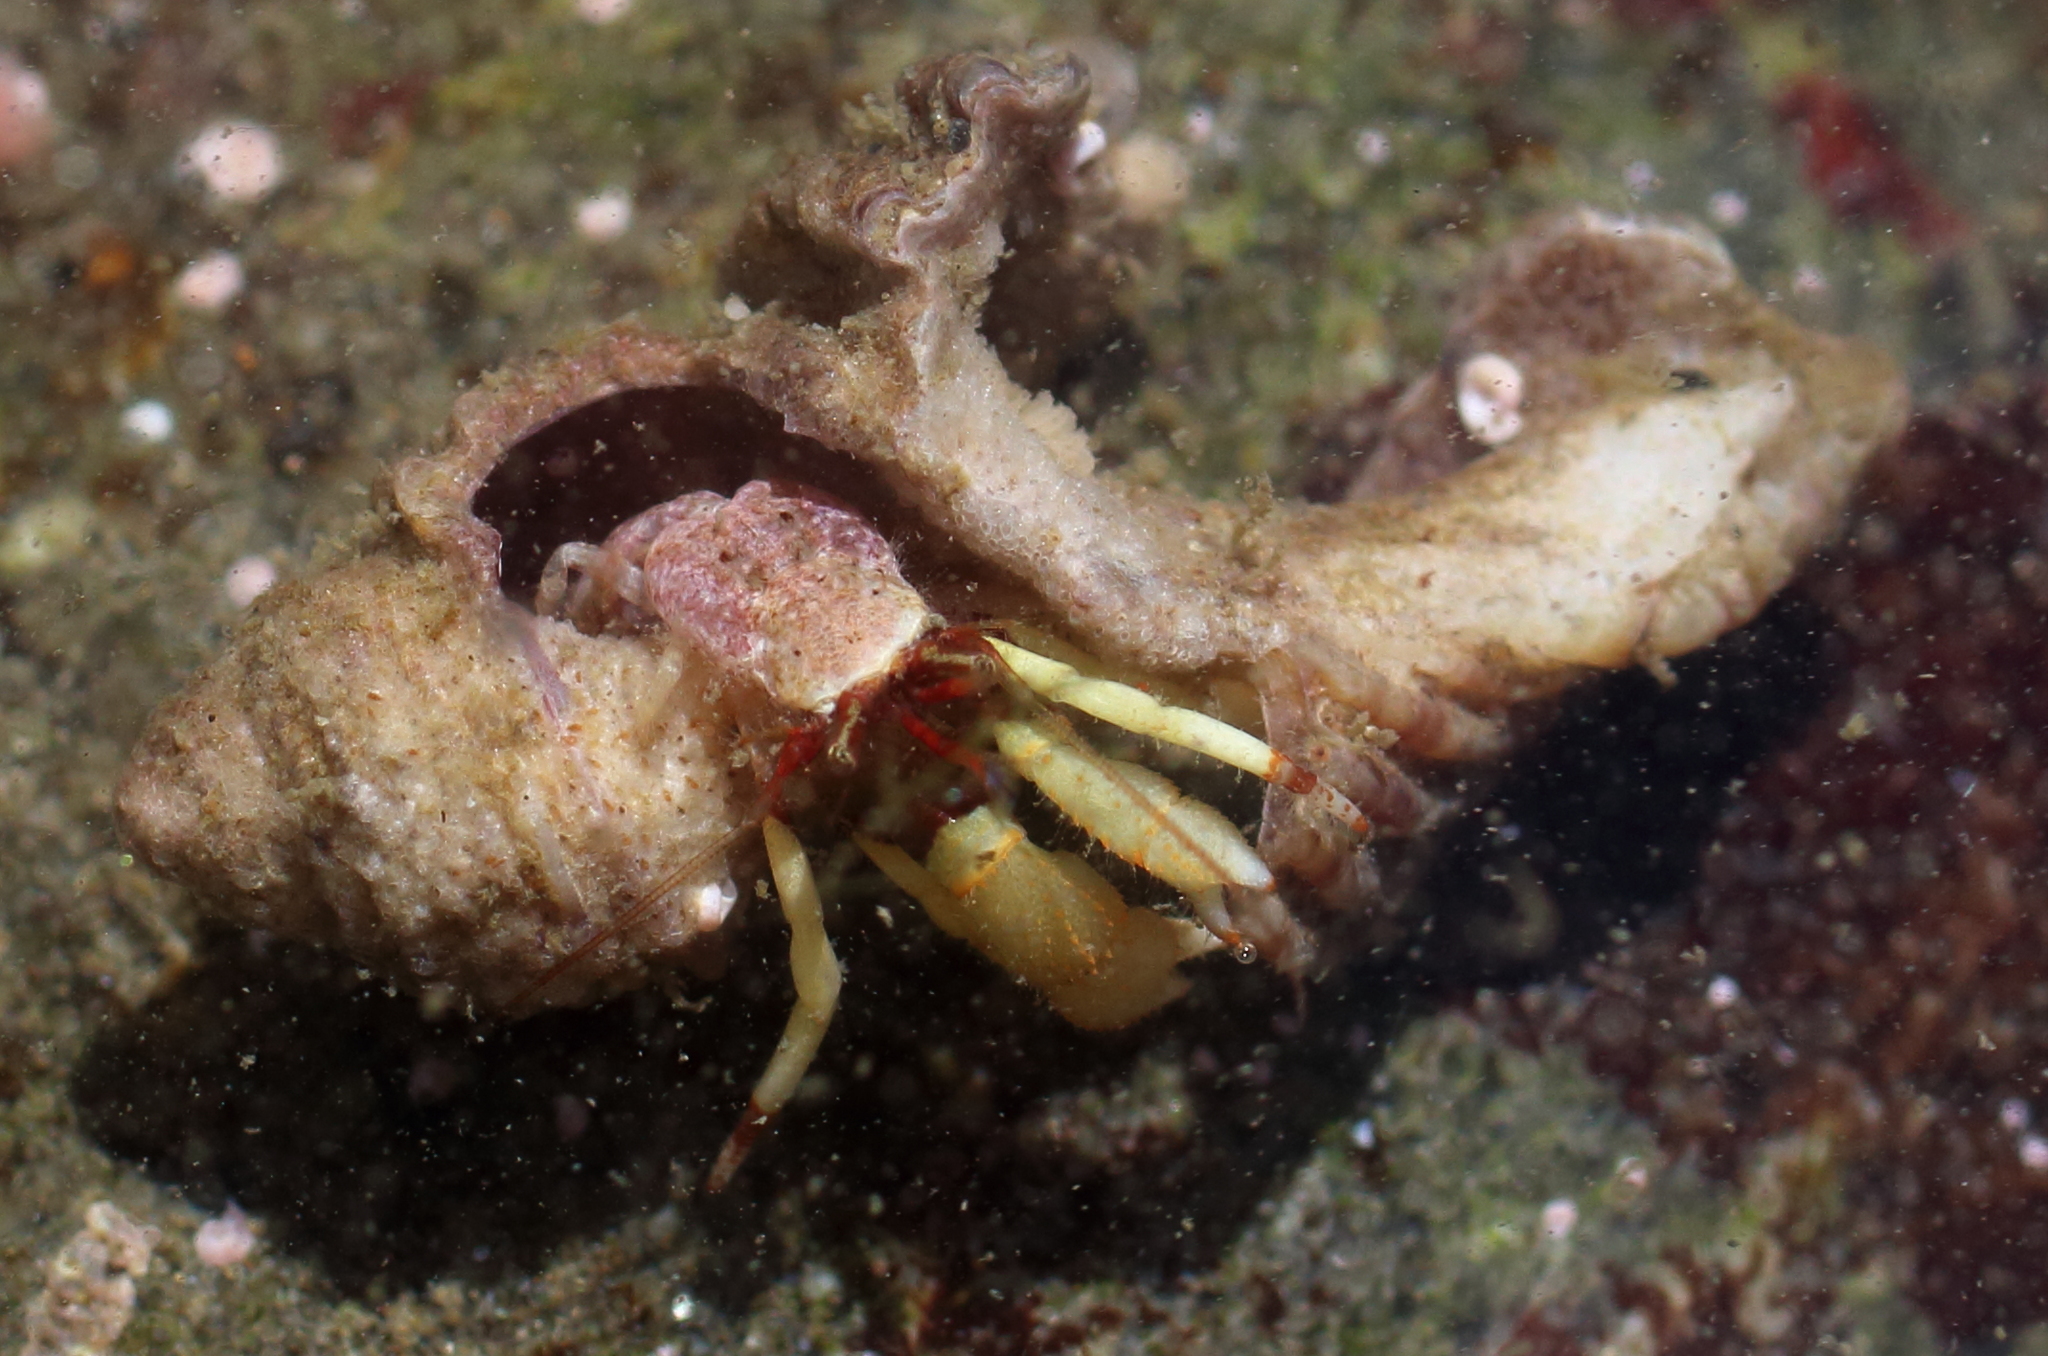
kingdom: Animalia
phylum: Arthropoda
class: Malacostraca
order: Decapoda
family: Paguridae
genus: Pagurus
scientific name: Pagurus beringanus
